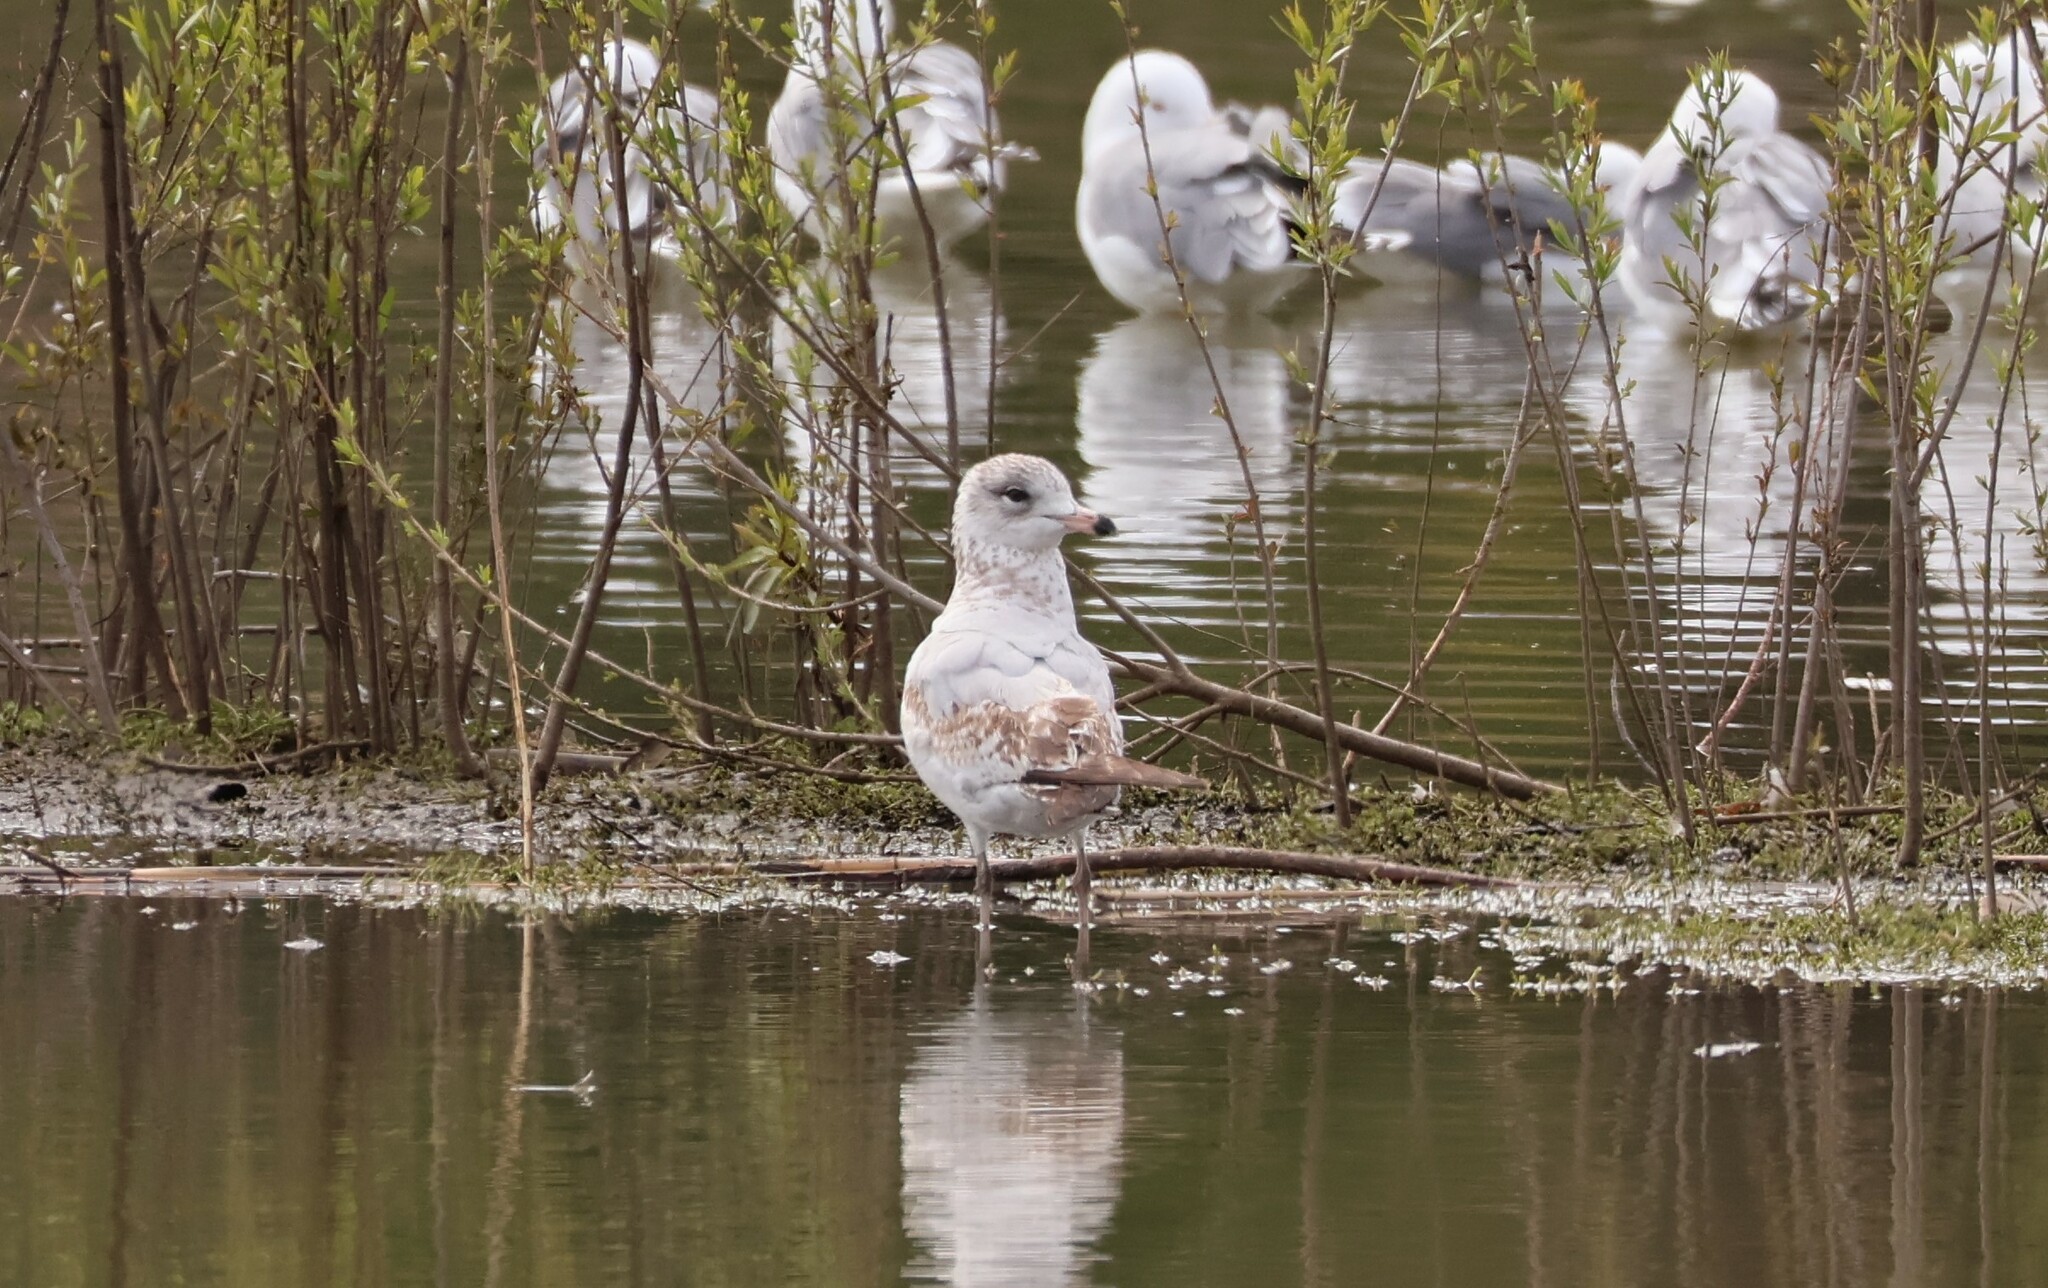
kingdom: Animalia
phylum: Chordata
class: Aves
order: Charadriiformes
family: Laridae
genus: Larus
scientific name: Larus delawarensis
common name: Ring-billed gull
